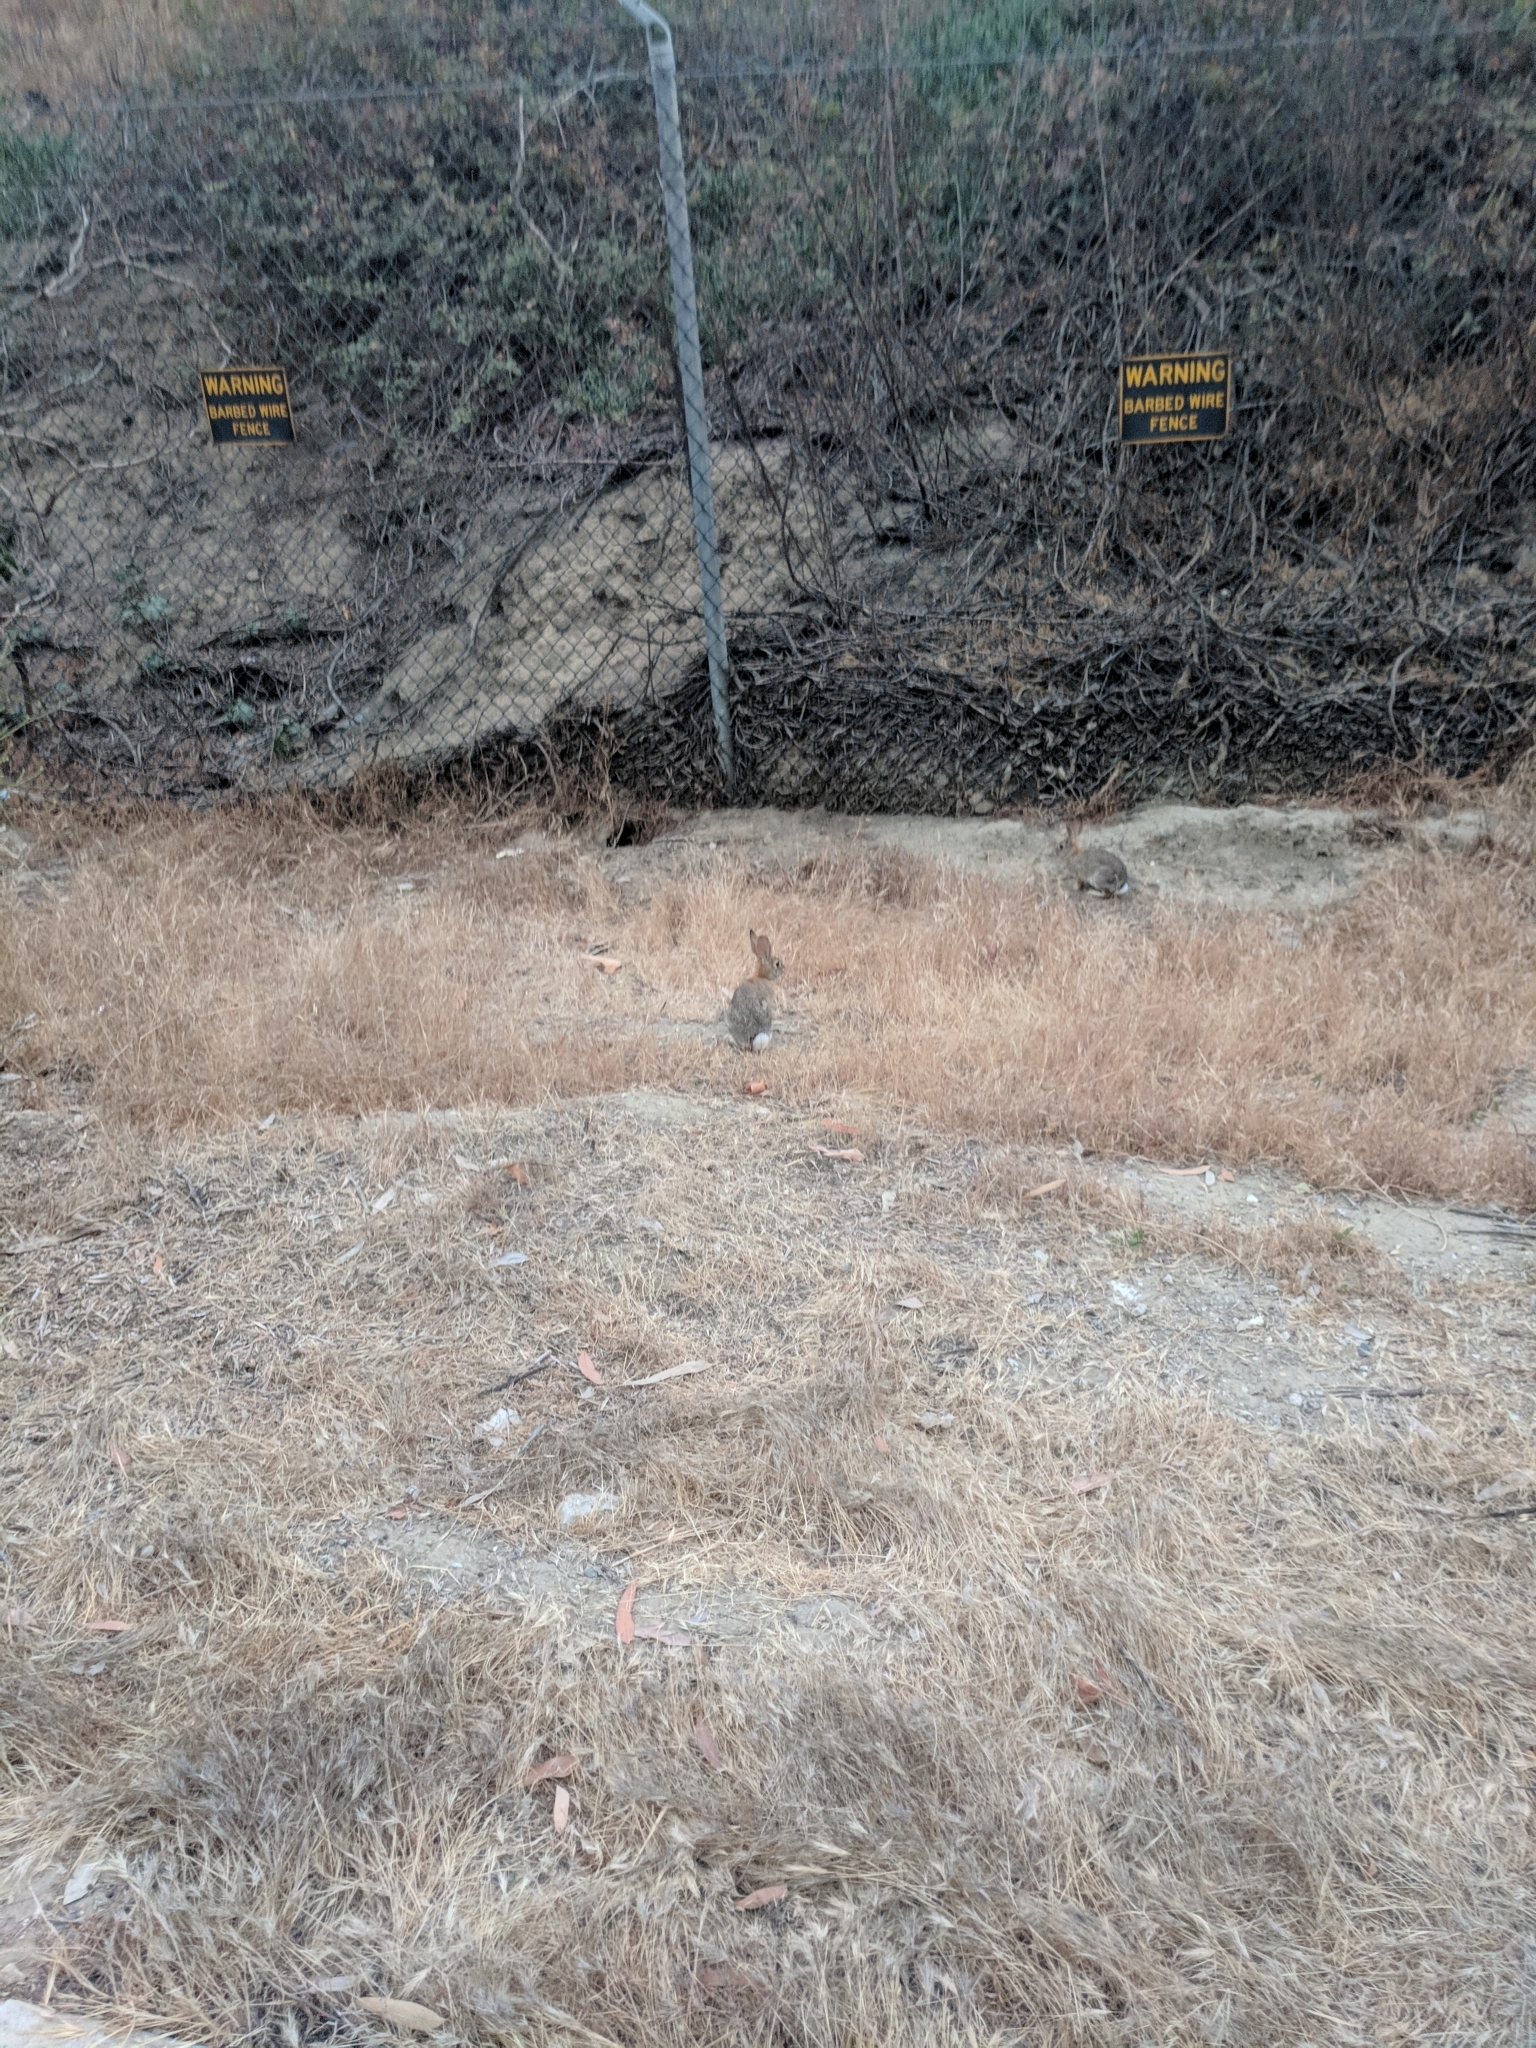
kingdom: Animalia
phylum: Chordata
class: Mammalia
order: Lagomorpha
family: Leporidae
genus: Sylvilagus
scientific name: Sylvilagus audubonii
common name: Desert cottontail
